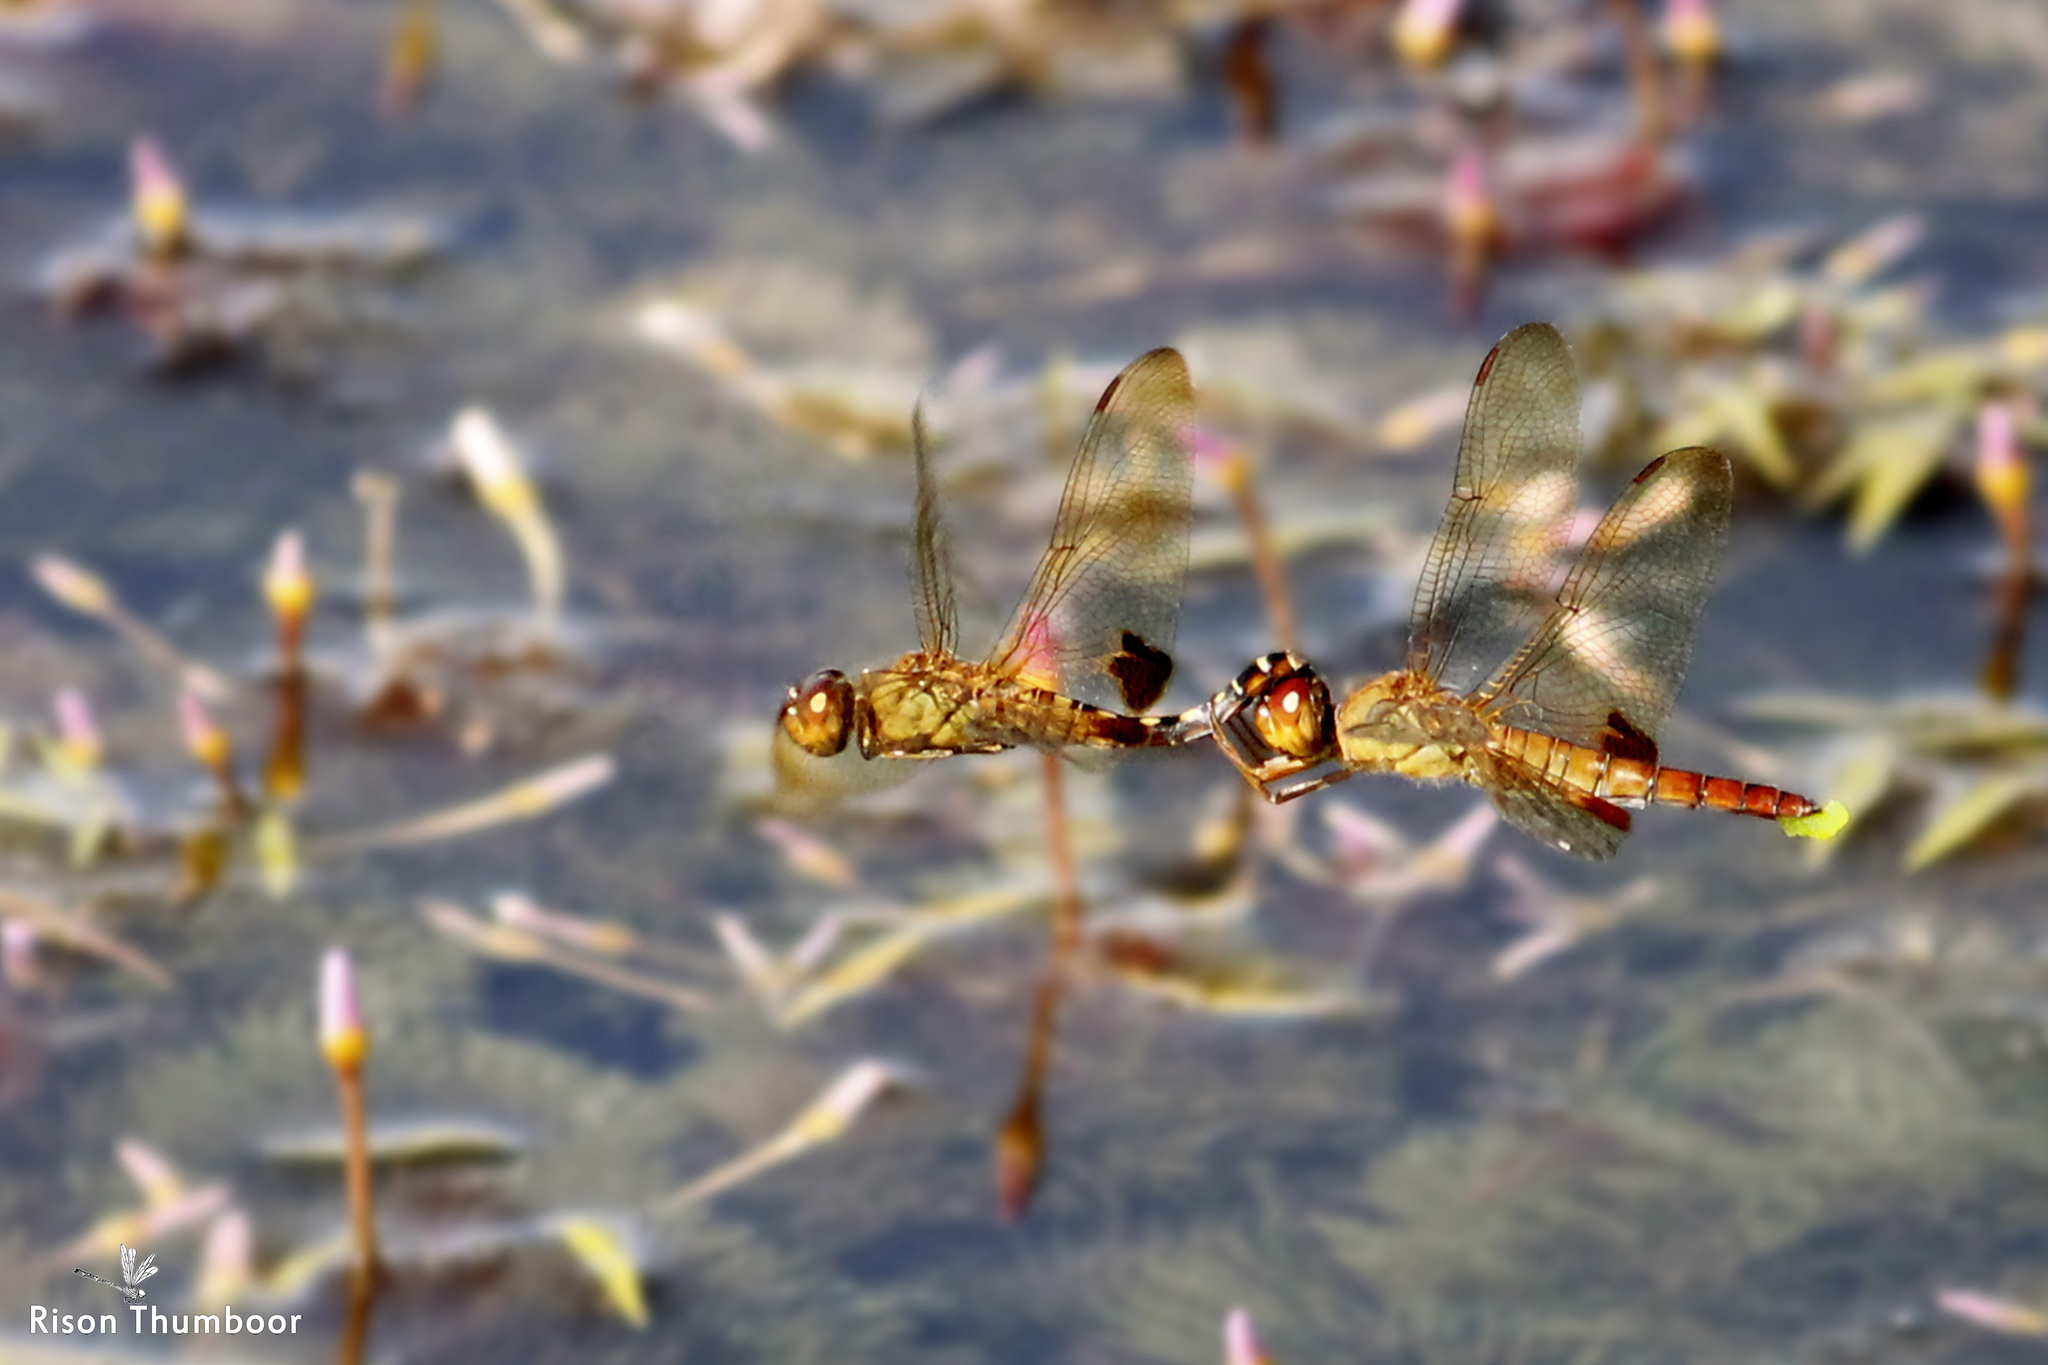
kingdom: Animalia
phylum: Arthropoda
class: Insecta
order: Odonata
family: Libellulidae
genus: Hydrobasileus
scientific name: Hydrobasileus croceus
